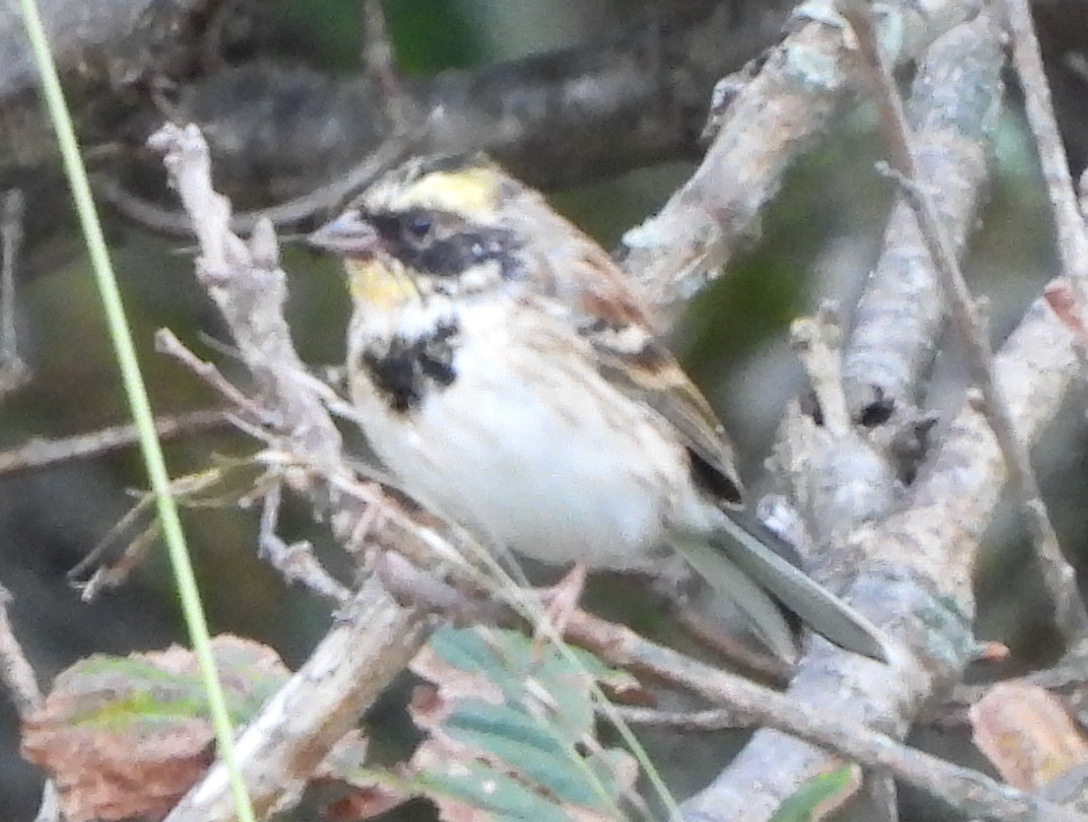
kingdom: Animalia
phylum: Chordata
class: Aves
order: Passeriformes
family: Emberizidae
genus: Emberiza
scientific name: Emberiza elegans
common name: Yellow-throated bunting
